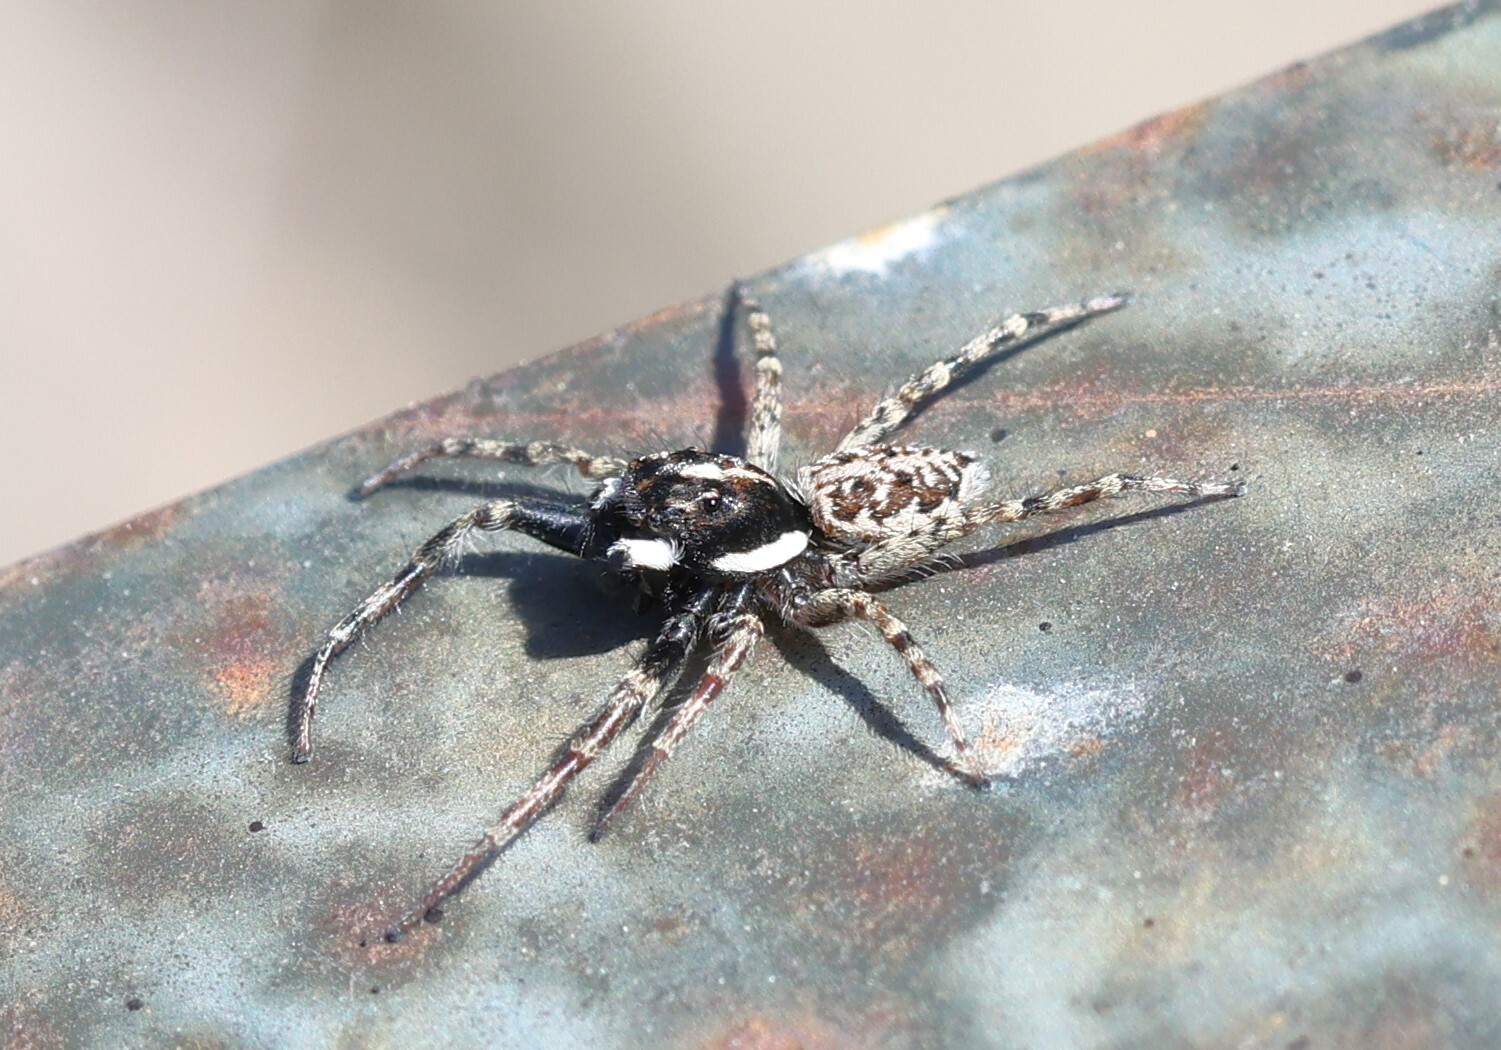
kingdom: Animalia
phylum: Arthropoda
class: Arachnida
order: Araneae
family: Salticidae
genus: Menemerus
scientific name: Menemerus semilimbatus
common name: Jumping spider
